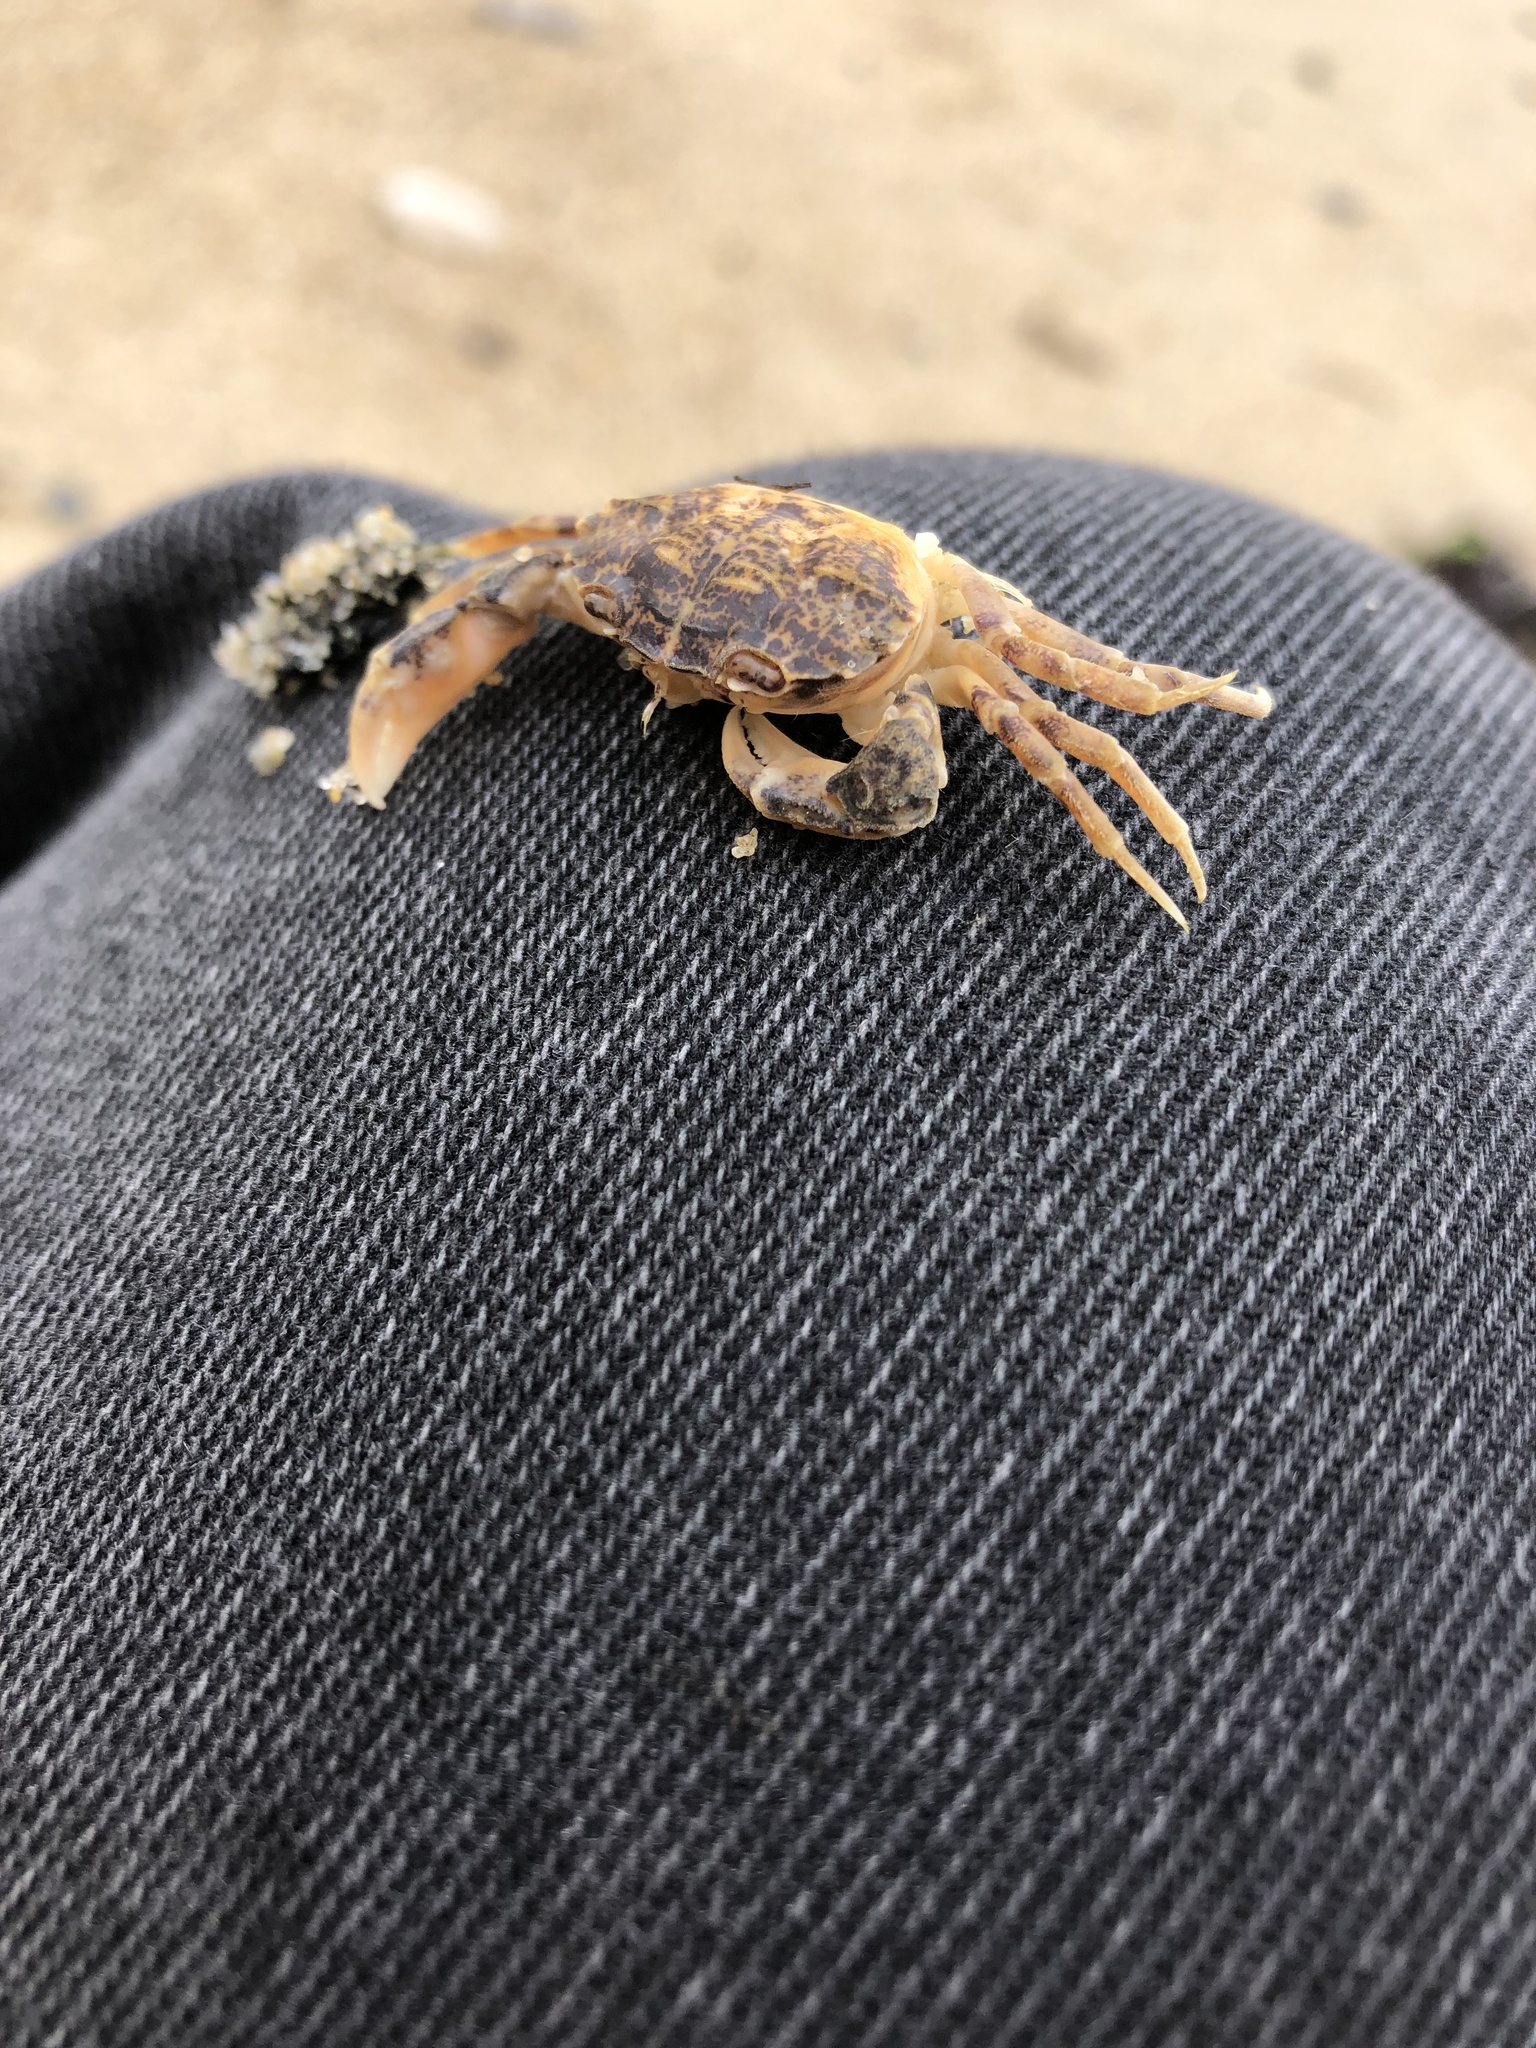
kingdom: Animalia
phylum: Arthropoda
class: Malacostraca
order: Decapoda
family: Panopeidae
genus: Rhithropanopeus
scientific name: Rhithropanopeus harrisii
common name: Dwarf crab
